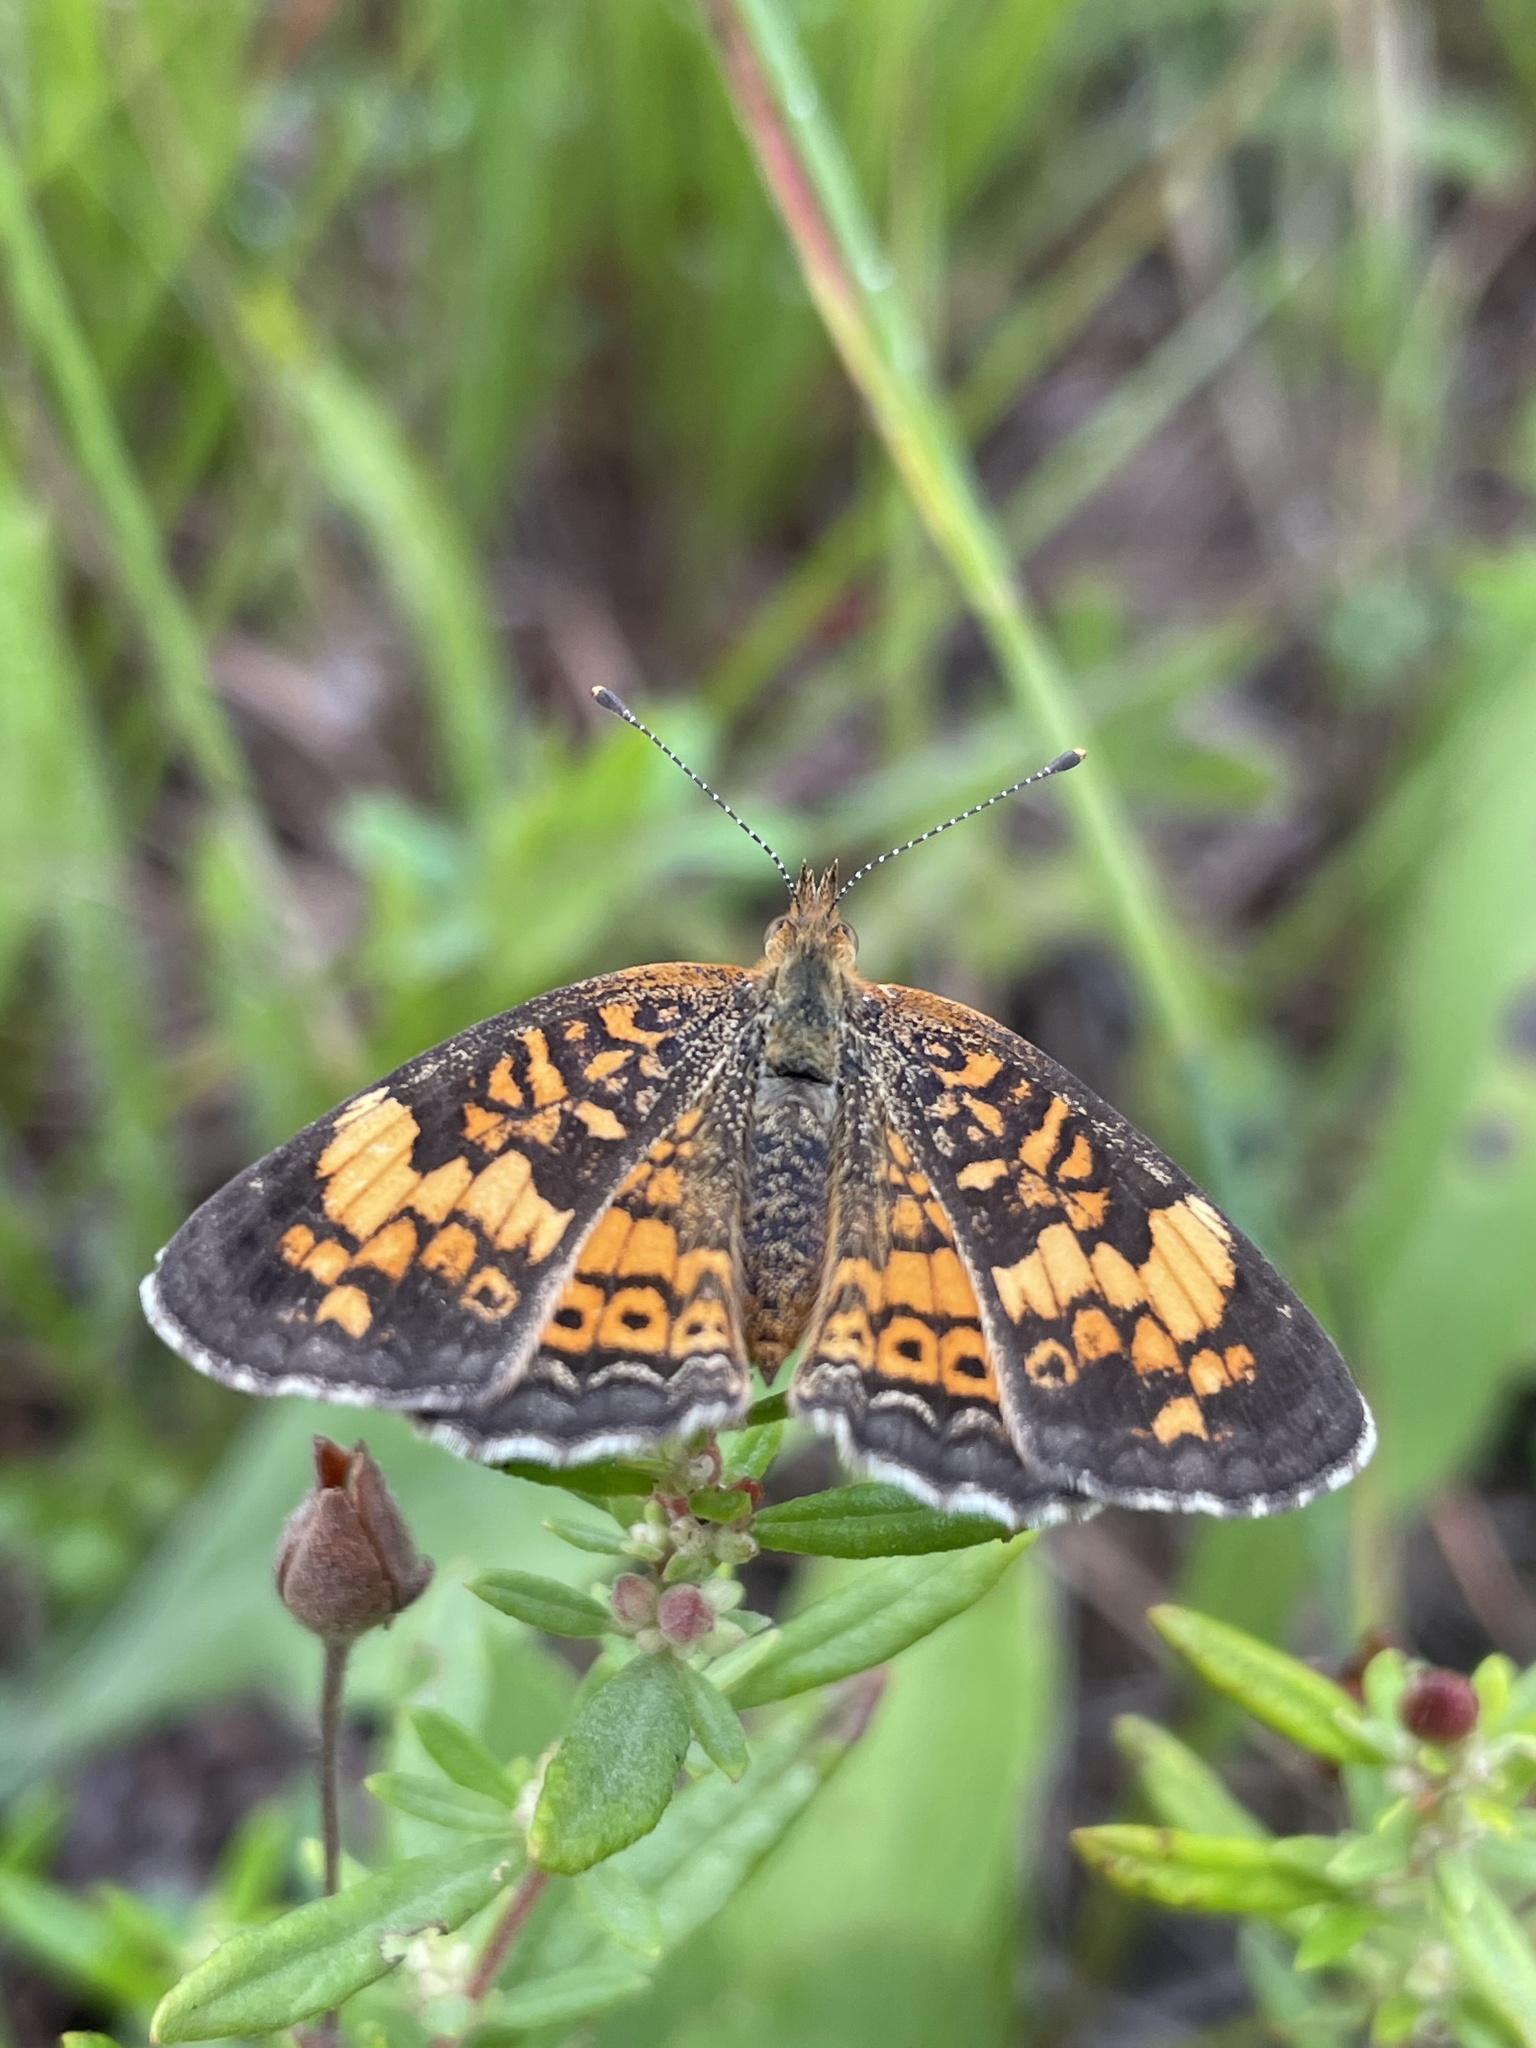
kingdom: Animalia
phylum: Arthropoda
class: Insecta
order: Lepidoptera
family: Nymphalidae
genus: Phyciodes
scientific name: Phyciodes tharos
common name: Pearl crescent
